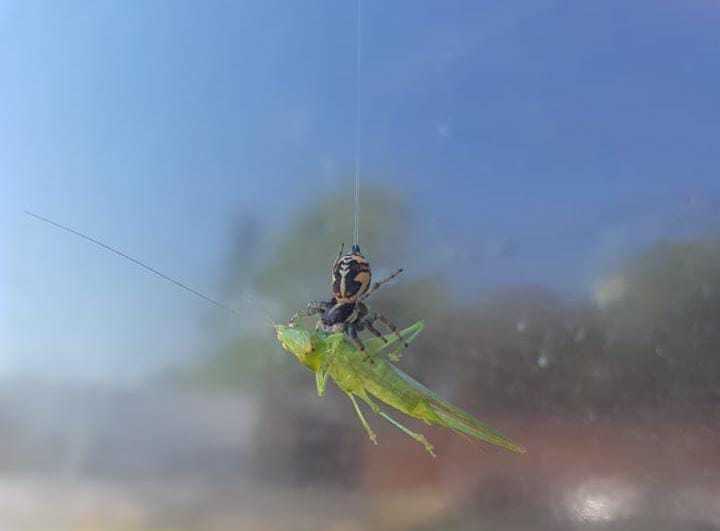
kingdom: Animalia
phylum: Arthropoda
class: Arachnida
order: Araneae
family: Salticidae
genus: Phiale
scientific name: Phiale roburifoliata
